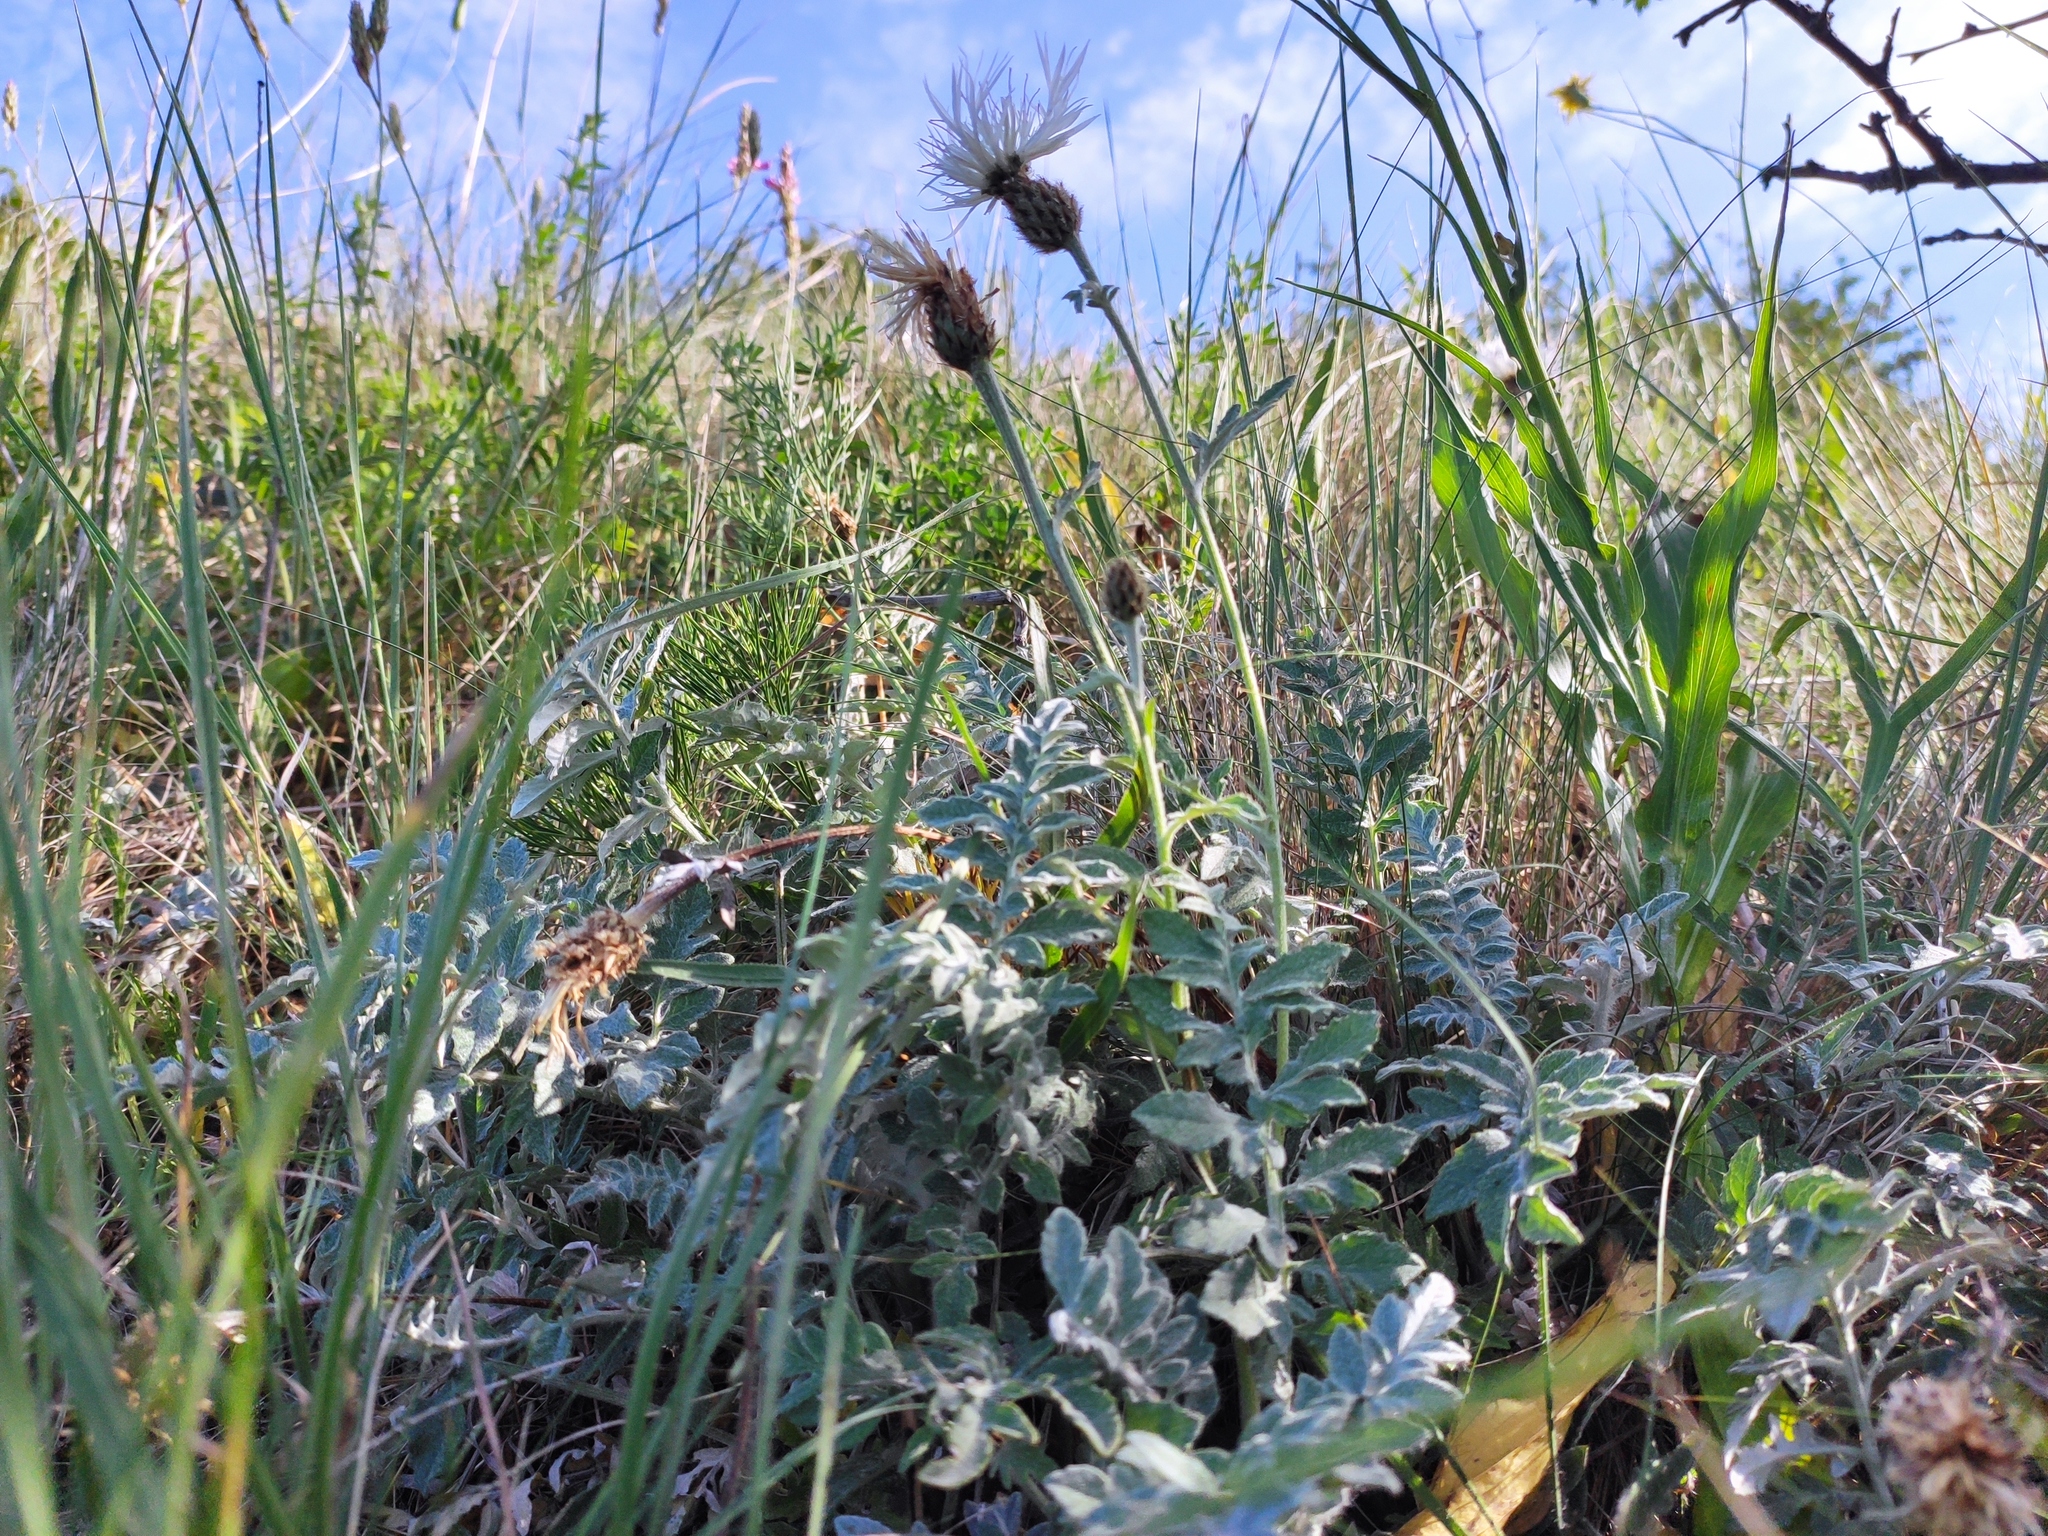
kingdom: Plantae
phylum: Tracheophyta
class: Magnoliopsida
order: Asterales
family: Asteraceae
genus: Psephellus
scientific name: Psephellus declinatus
